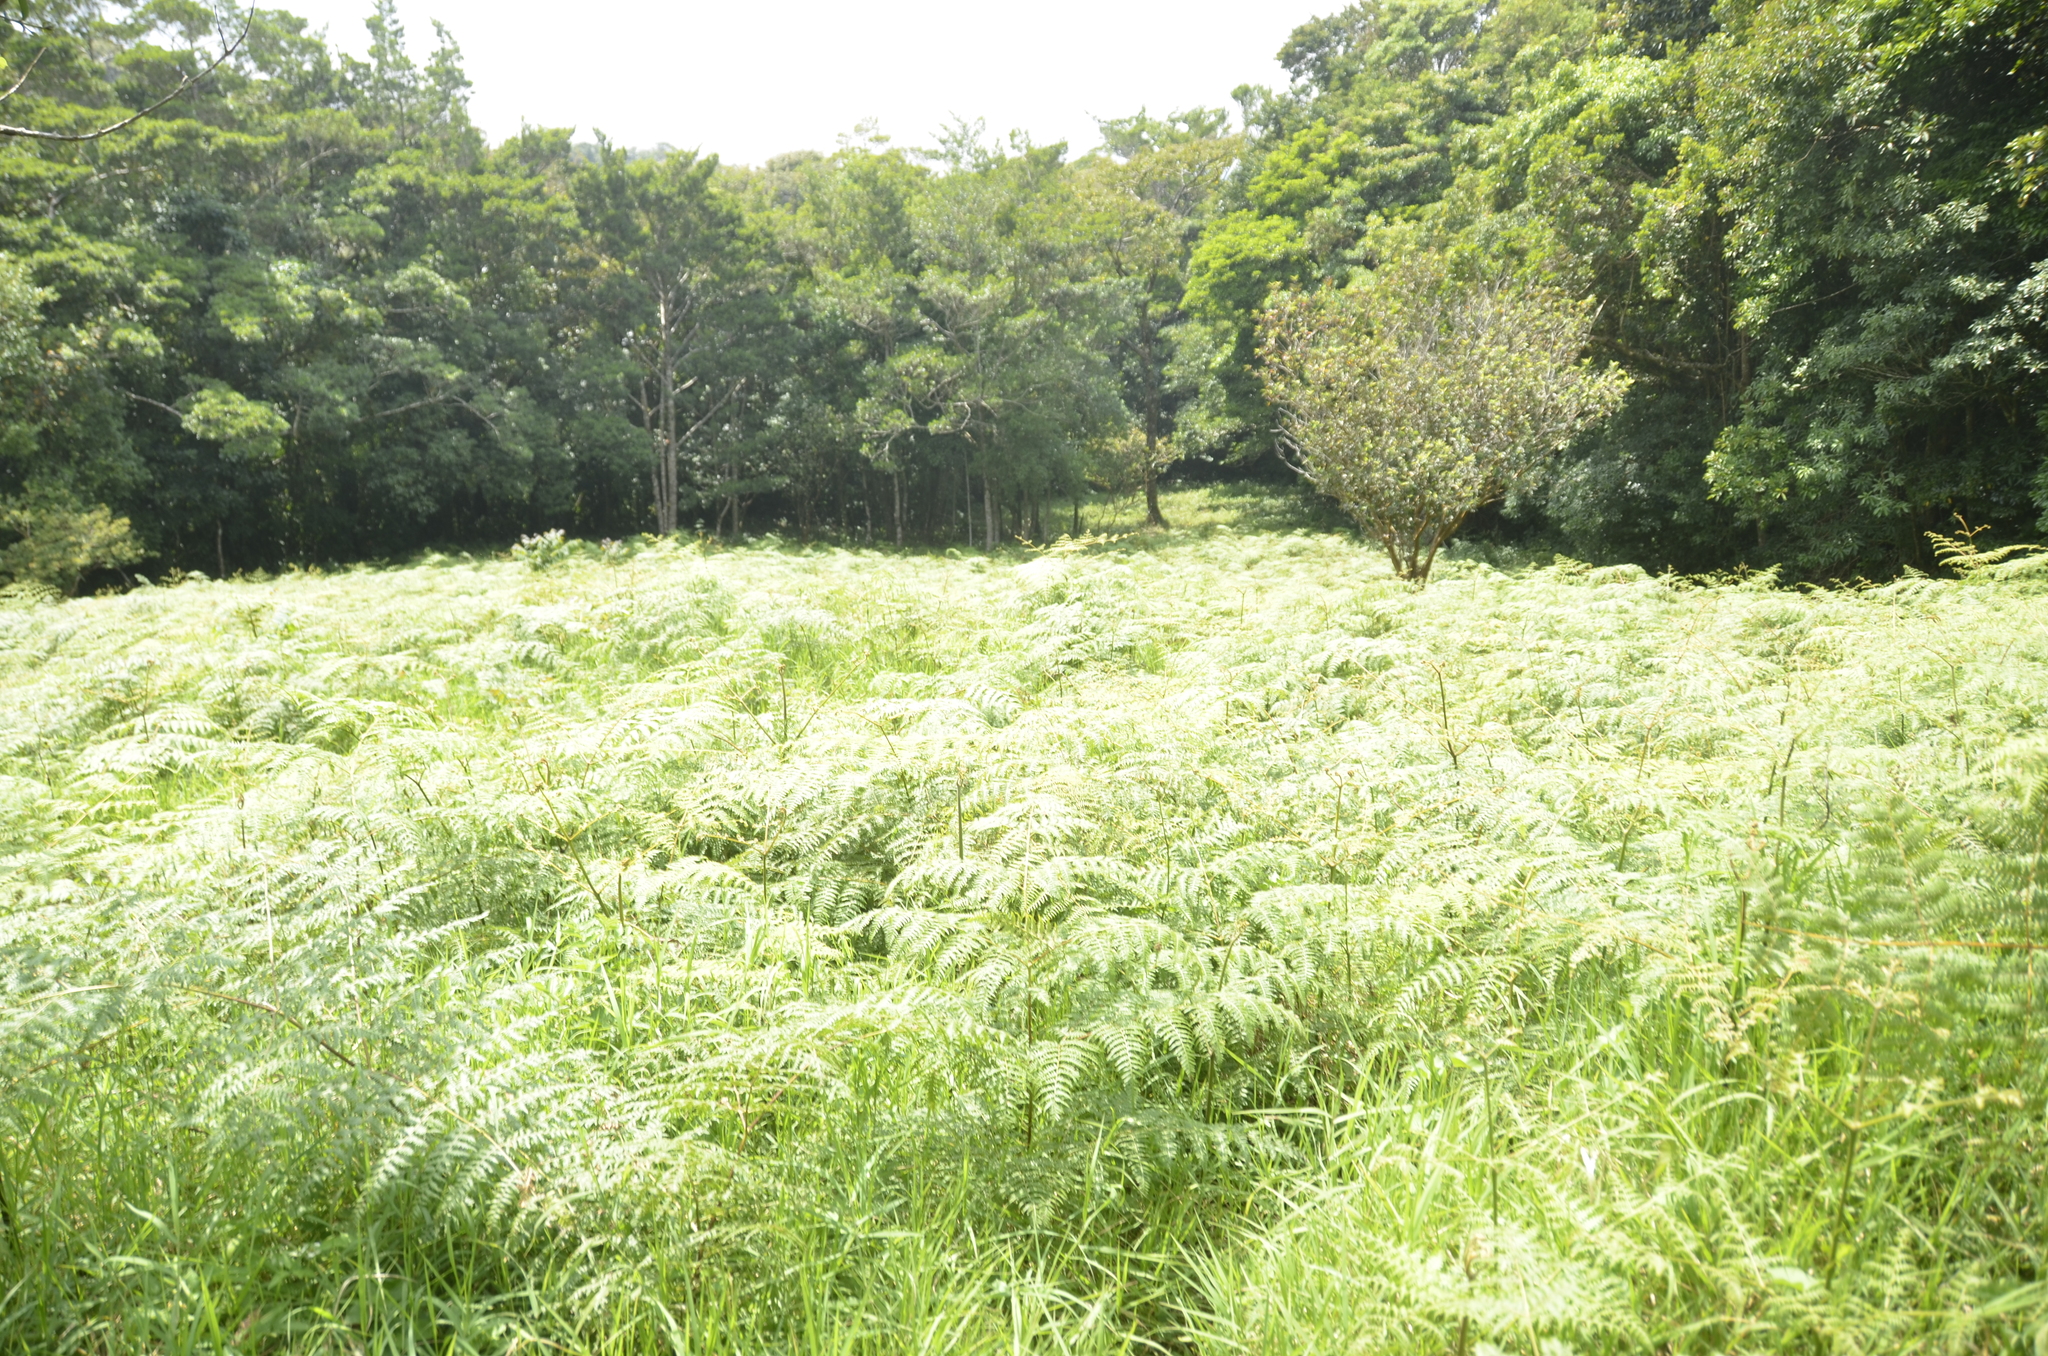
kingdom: Plantae
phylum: Tracheophyta
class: Polypodiopsida
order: Polypodiales
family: Dennstaedtiaceae
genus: Pteridium
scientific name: Pteridium esculentum
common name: Bracken fern
